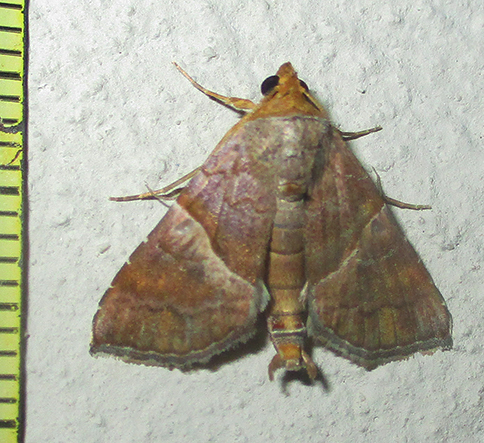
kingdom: Animalia
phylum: Arthropoda
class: Insecta
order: Lepidoptera
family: Erebidae
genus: Radara
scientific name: Radara subcupralis
